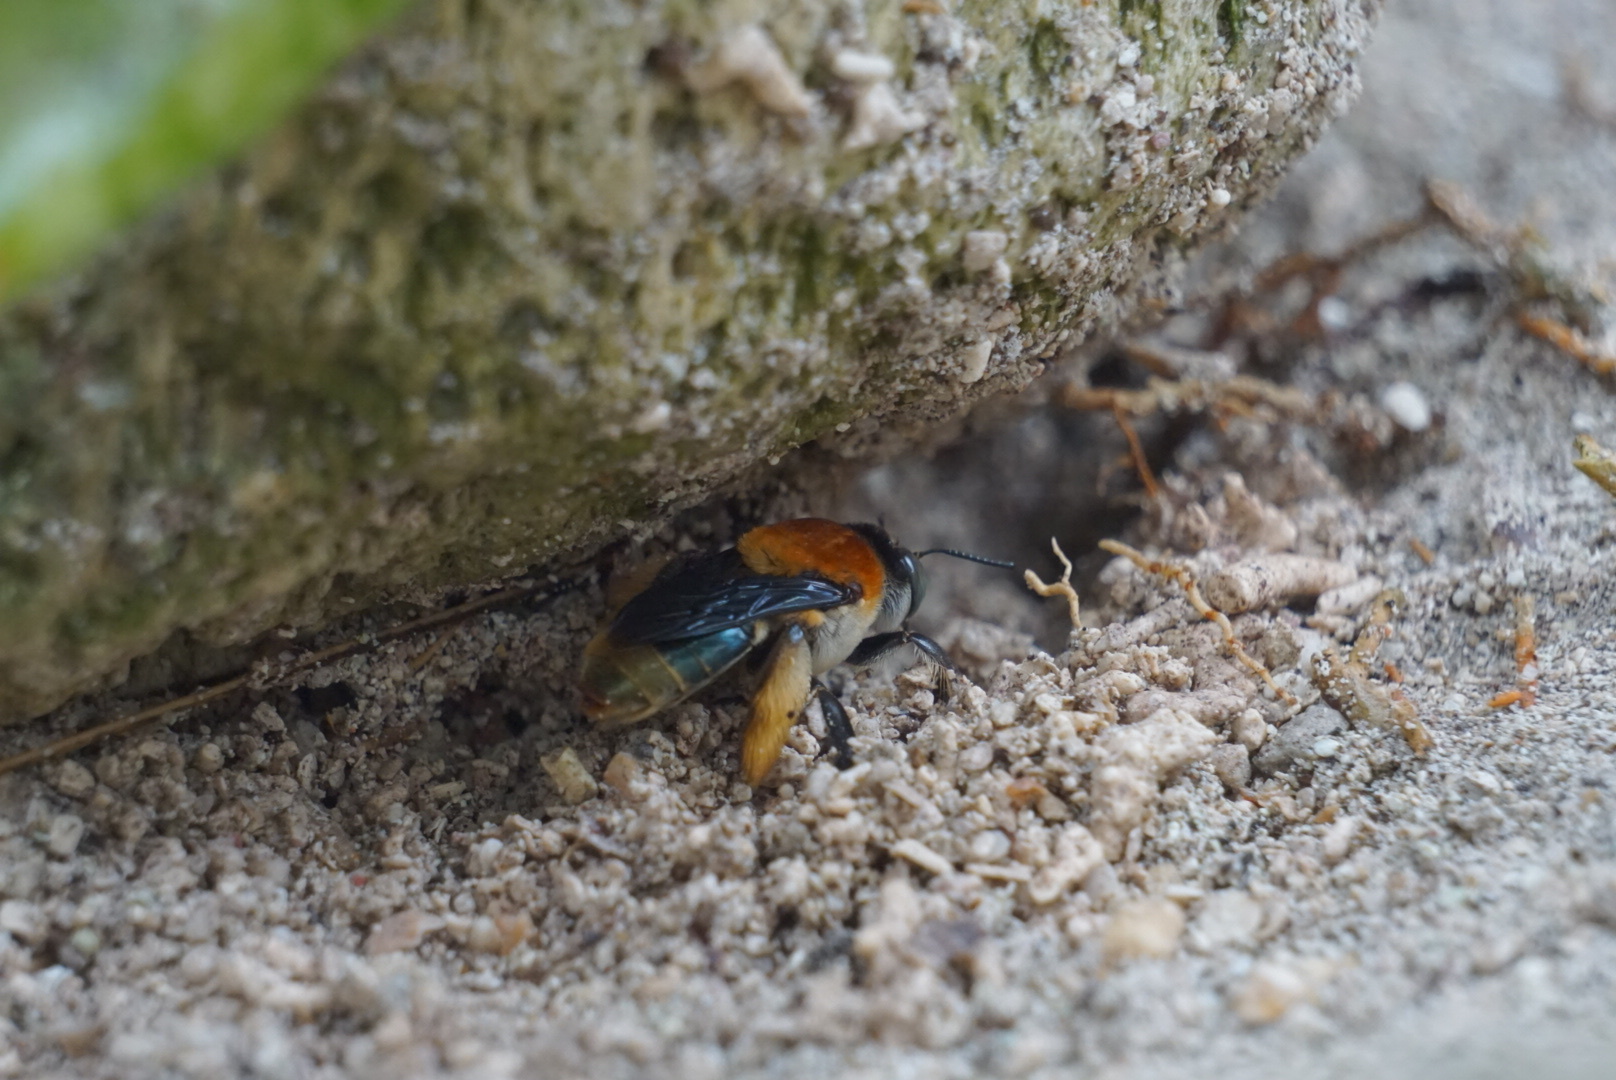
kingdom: Animalia
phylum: Arthropoda
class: Insecta
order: Hymenoptera
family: Apidae
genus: Centris
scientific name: Centris decolorata
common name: Crazy beach bee
